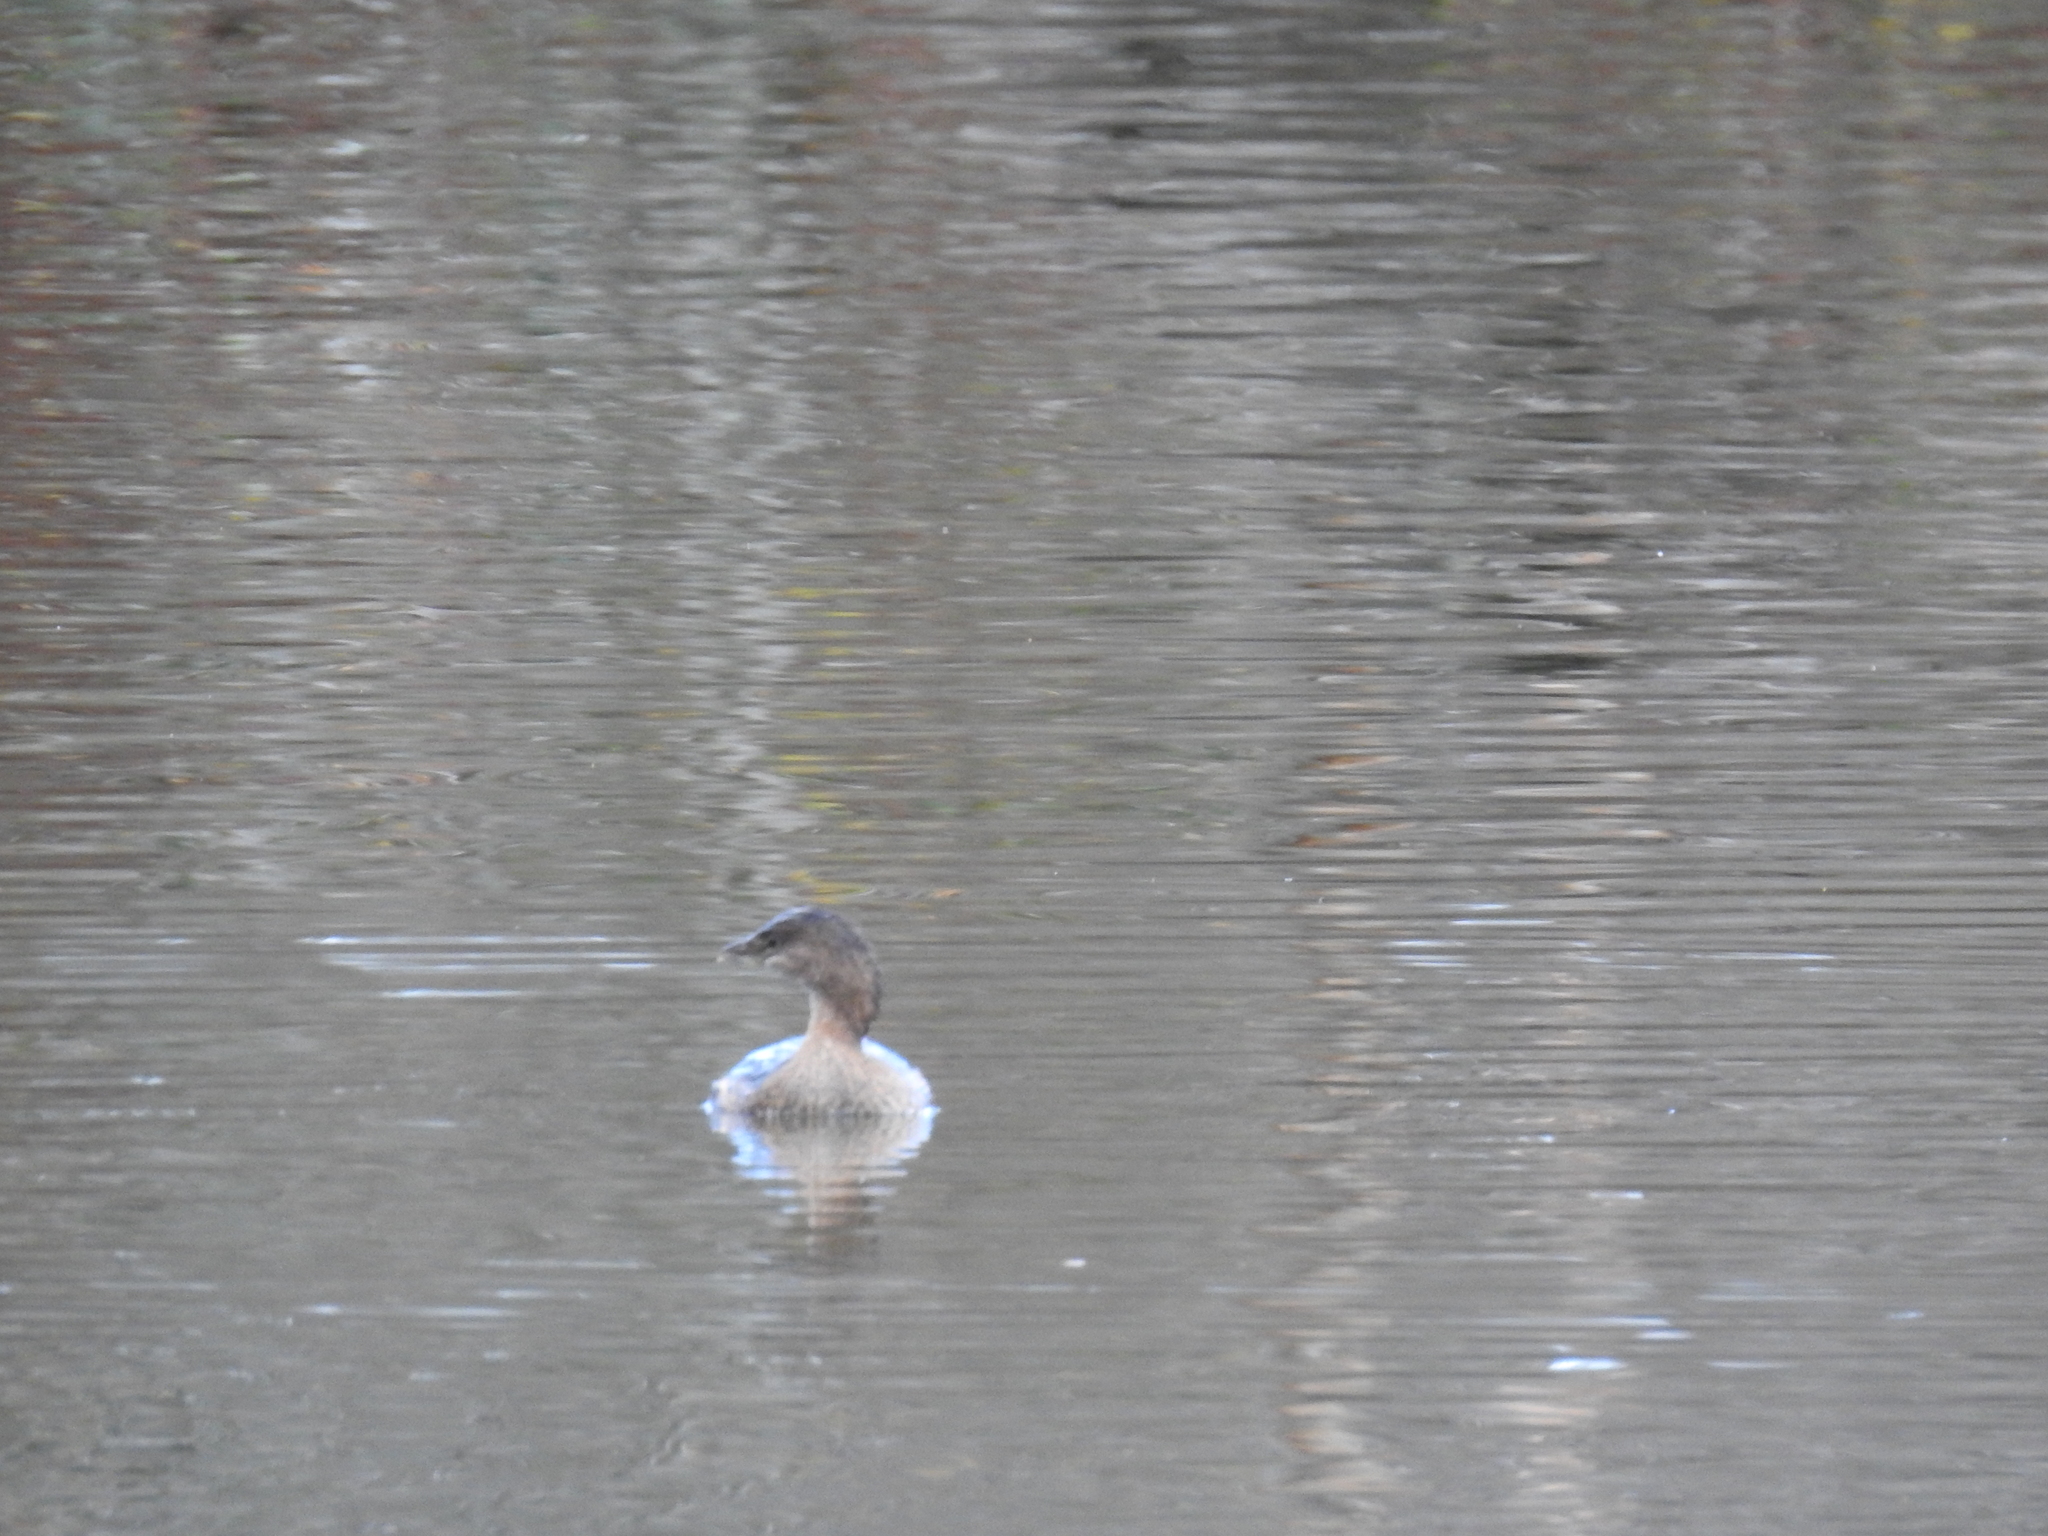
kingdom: Animalia
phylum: Chordata
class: Aves
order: Podicipediformes
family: Podicipedidae
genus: Podilymbus
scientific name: Podilymbus podiceps
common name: Pied-billed grebe
